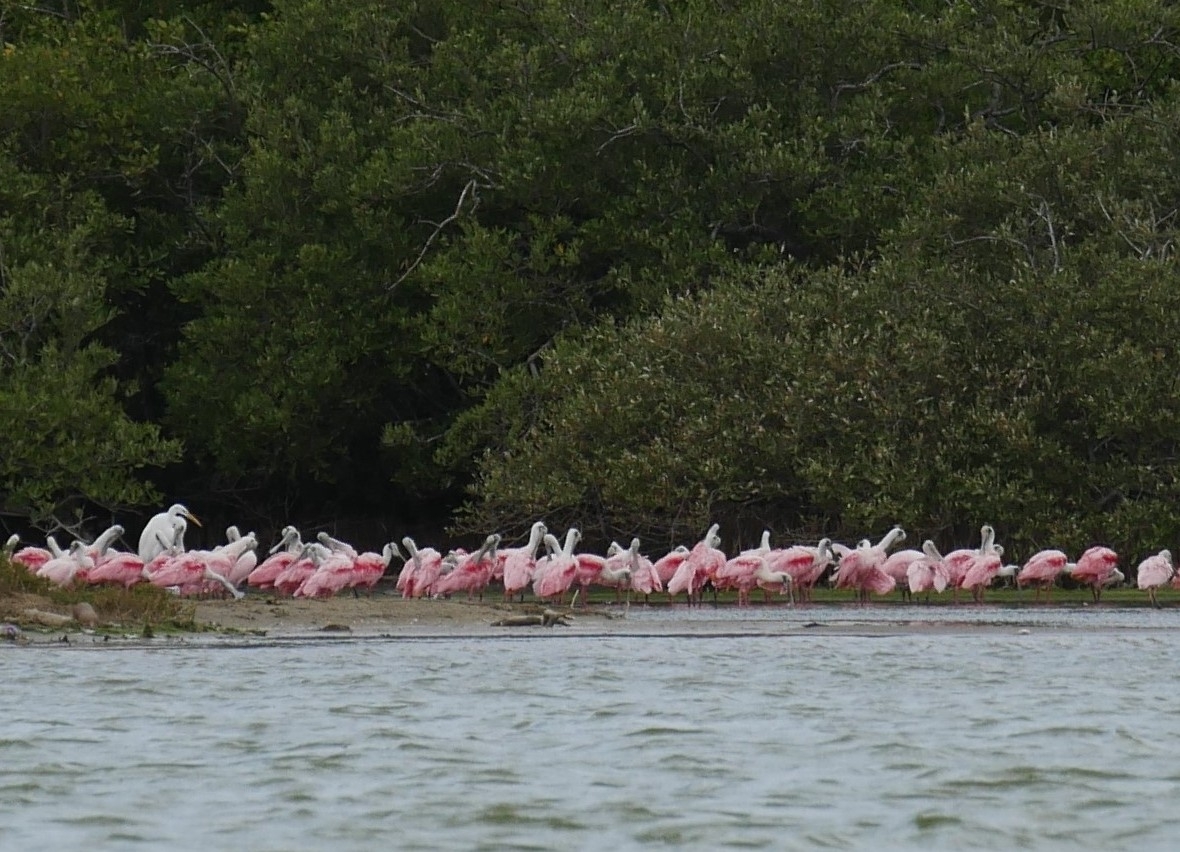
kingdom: Animalia
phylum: Chordata
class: Aves
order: Pelecaniformes
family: Threskiornithidae
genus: Platalea
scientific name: Platalea ajaja
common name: Roseate spoonbill
